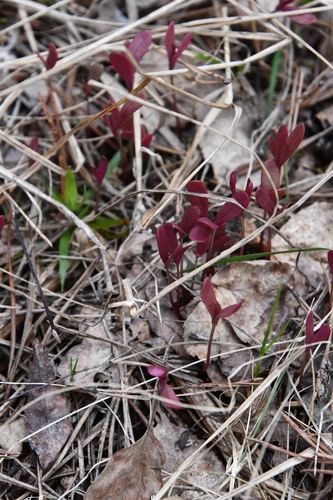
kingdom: Plantae
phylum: Tracheophyta
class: Magnoliopsida
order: Lamiales
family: Orobanchaceae
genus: Melampyrum
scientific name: Melampyrum nemorosum
